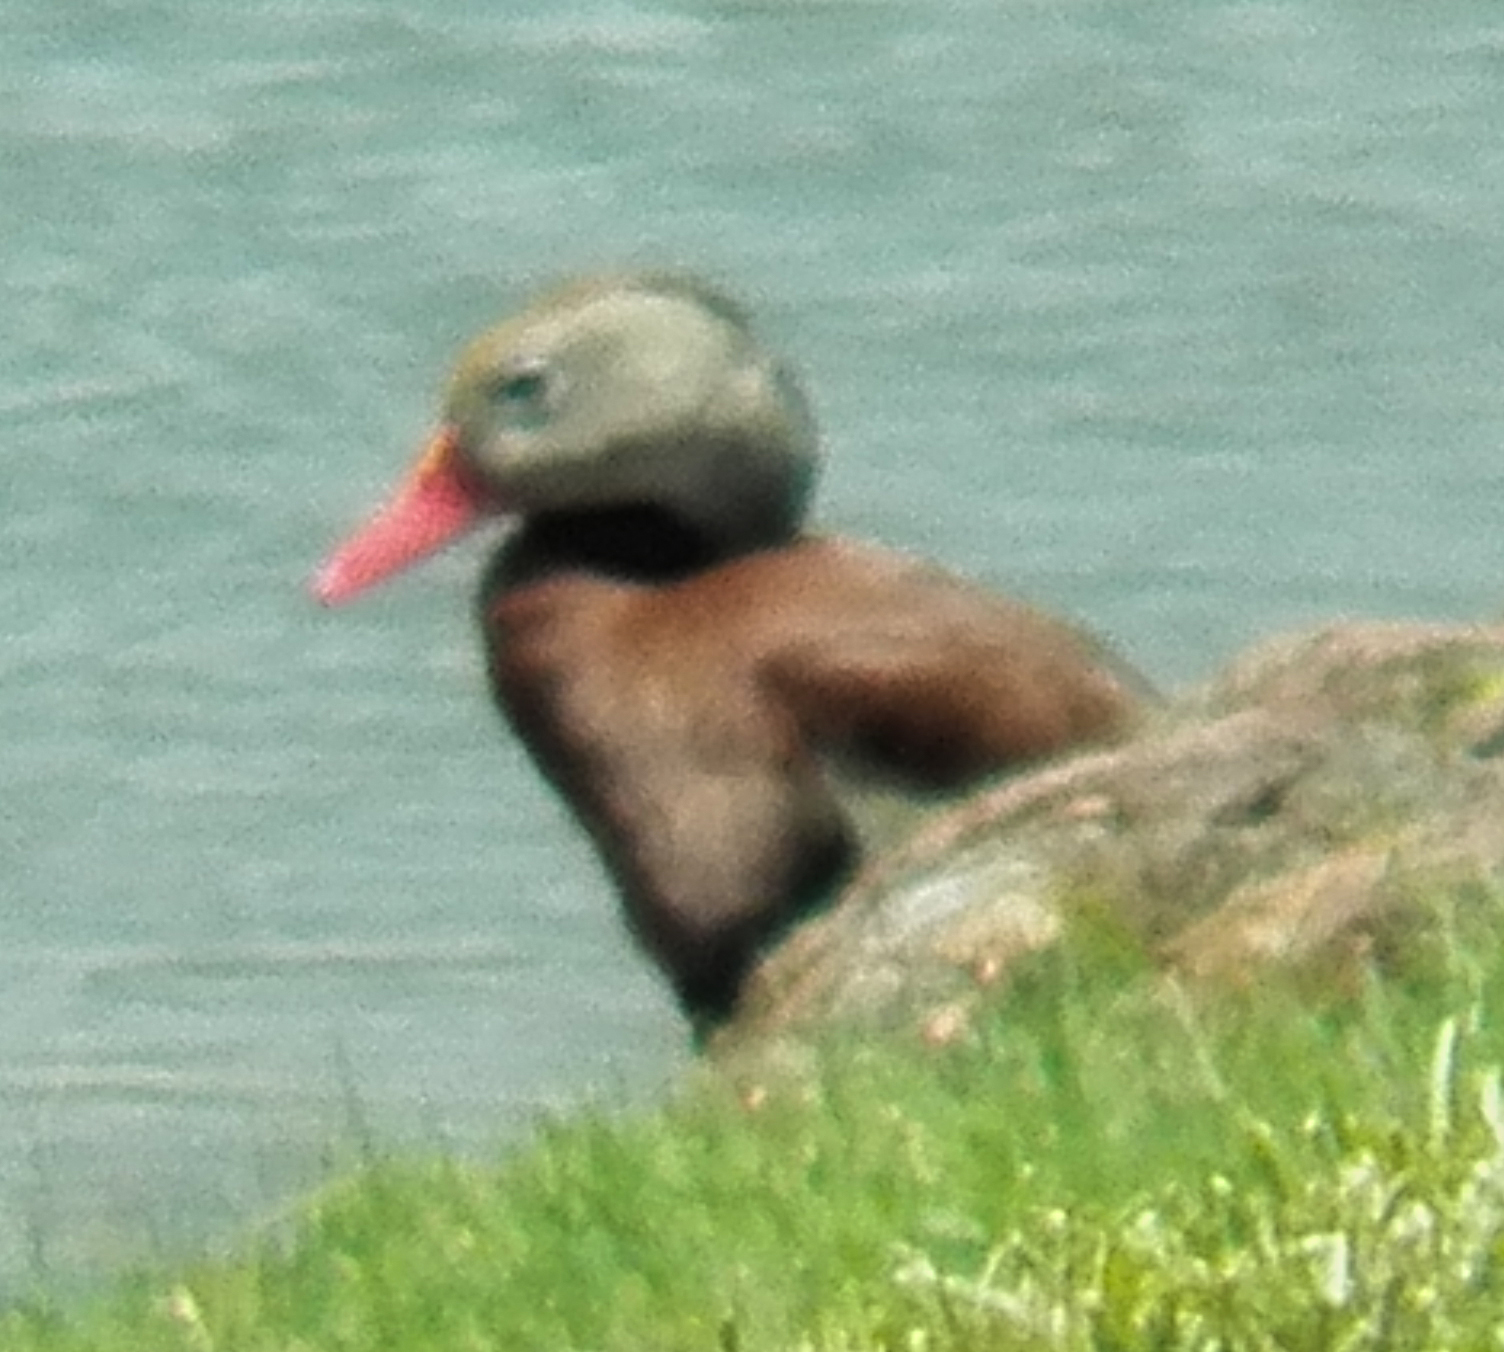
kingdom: Animalia
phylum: Chordata
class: Aves
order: Anseriformes
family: Anatidae
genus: Dendrocygna
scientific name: Dendrocygna autumnalis
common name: Black-bellied whistling duck
